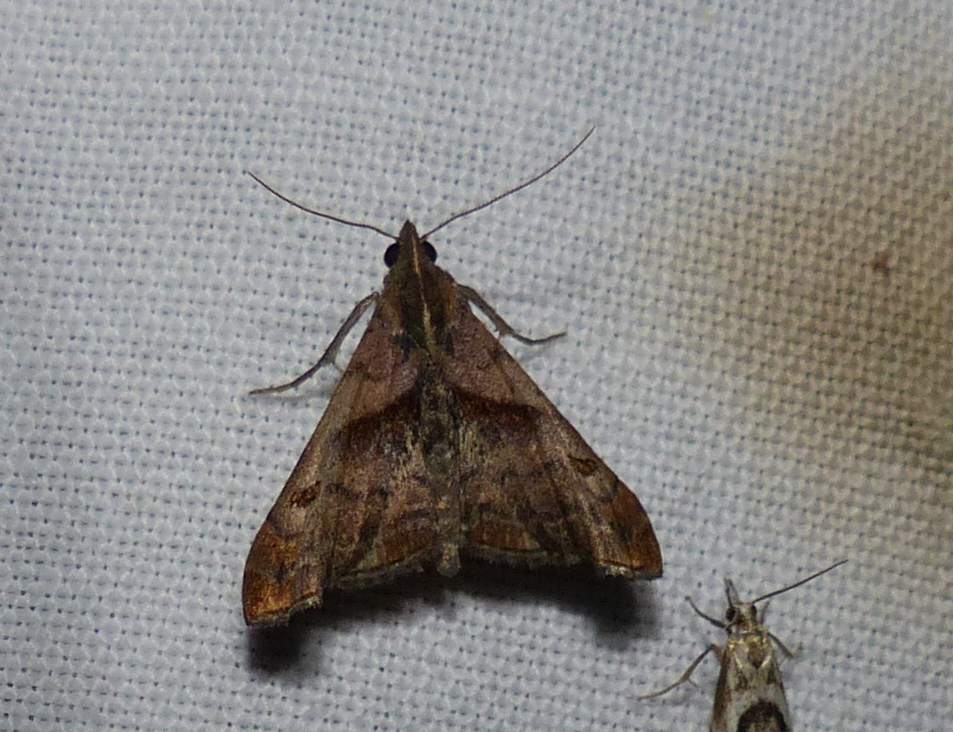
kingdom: Animalia
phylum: Arthropoda
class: Insecta
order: Lepidoptera
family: Erebidae
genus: Palthis
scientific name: Palthis angulalis
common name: Dark-spotted palthis moth
